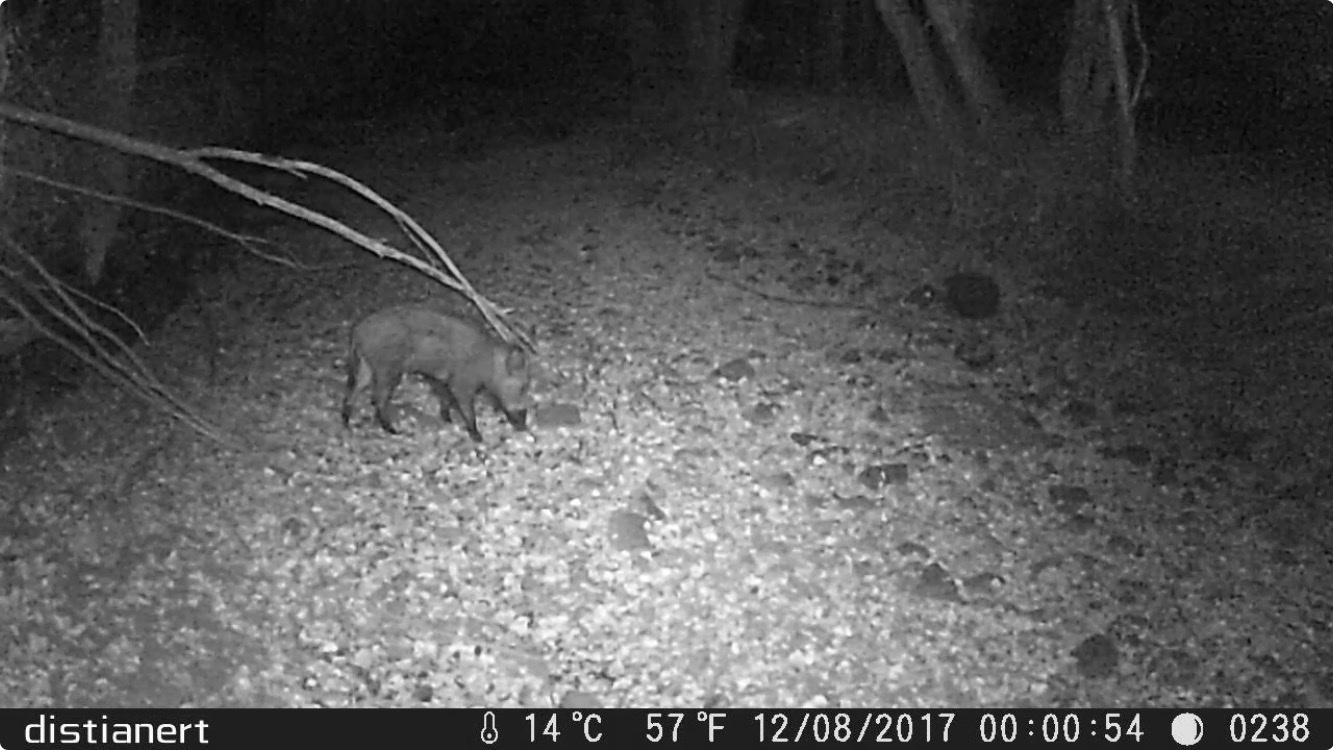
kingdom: Animalia
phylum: Chordata
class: Mammalia
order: Artiodactyla
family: Suidae
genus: Sus
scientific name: Sus scrofa
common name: Wild boar
